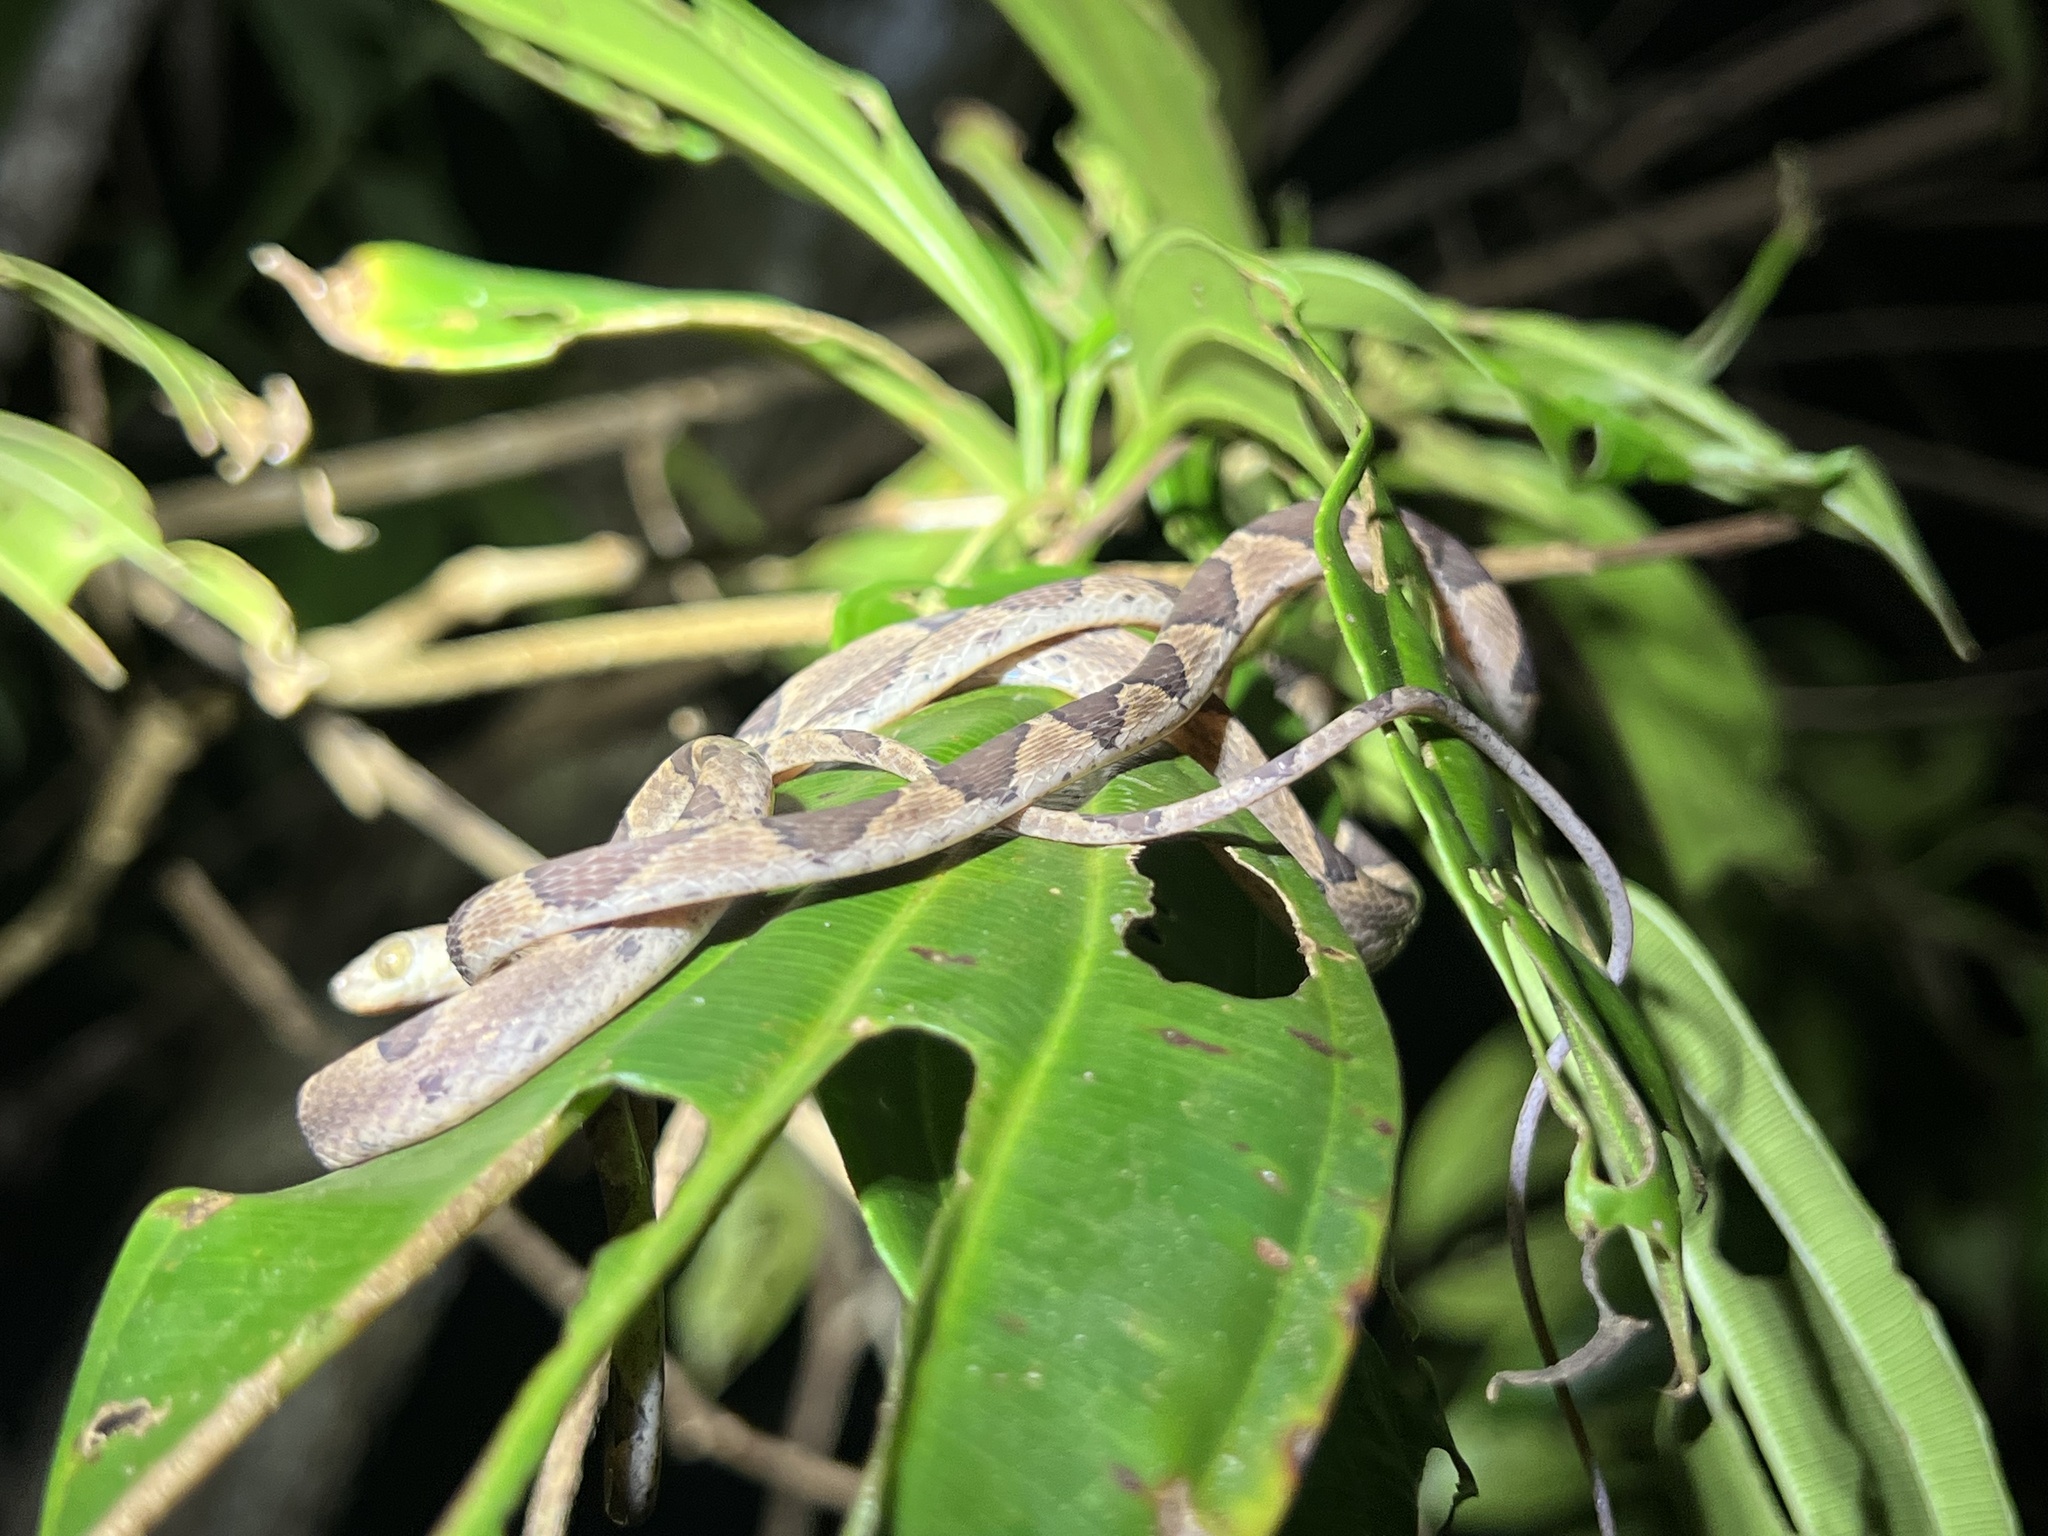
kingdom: Animalia
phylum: Chordata
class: Squamata
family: Colubridae
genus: Imantodes
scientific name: Imantodes cenchoa
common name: Blunthead tree snake
